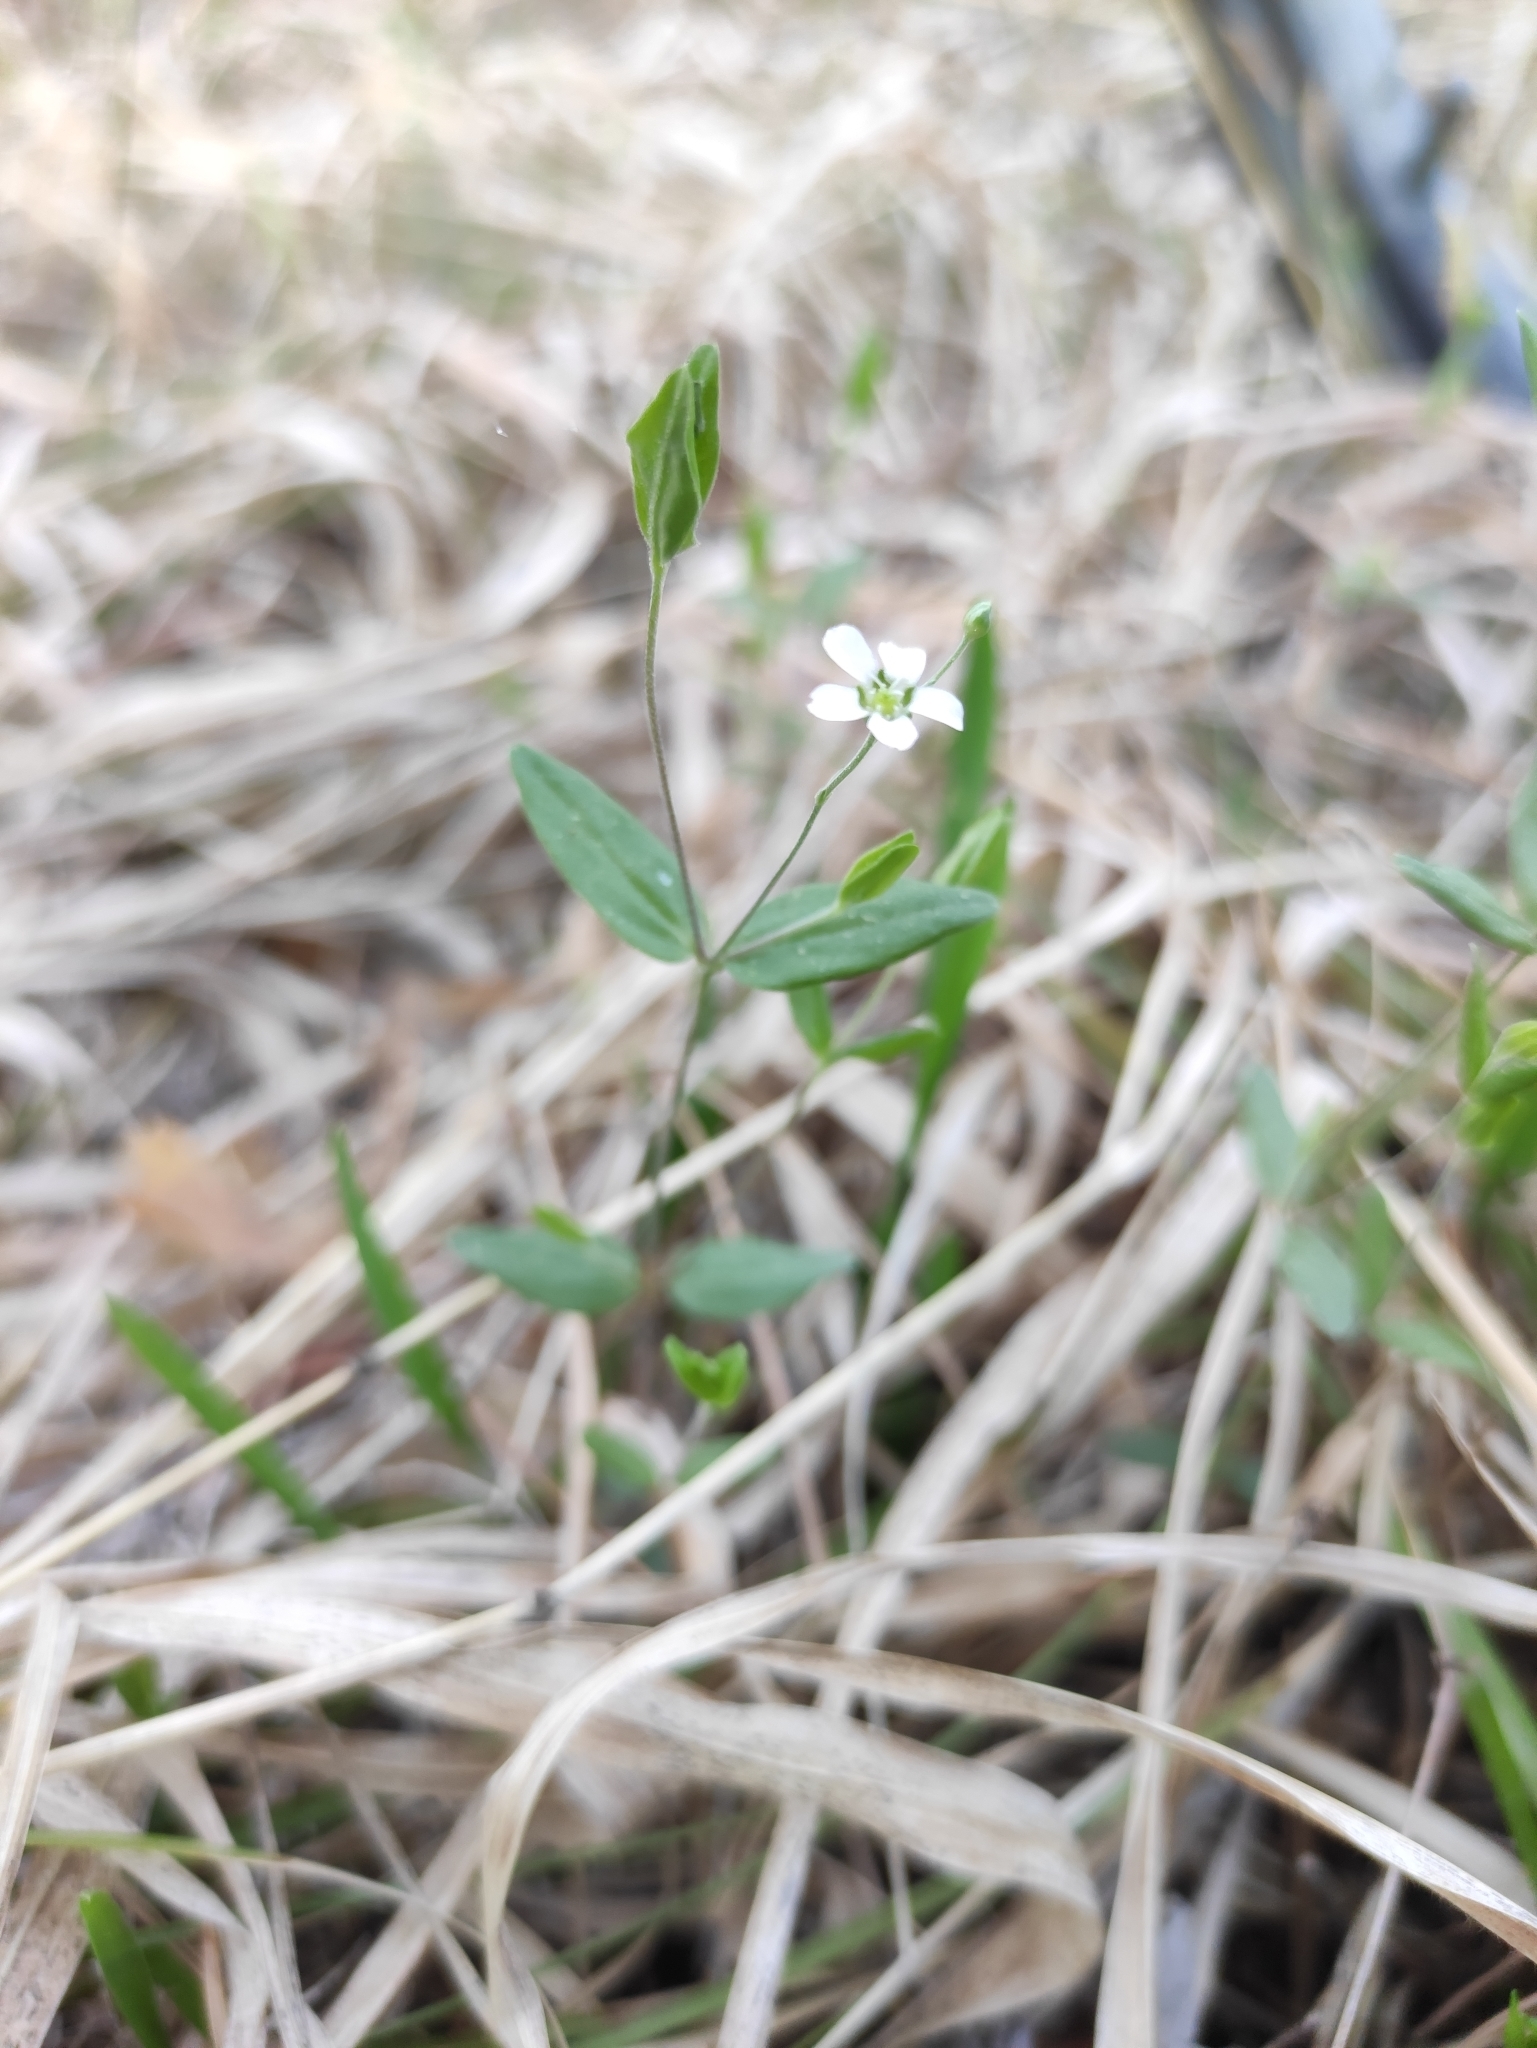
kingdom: Plantae
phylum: Tracheophyta
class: Magnoliopsida
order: Caryophyllales
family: Caryophyllaceae
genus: Moehringia
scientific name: Moehringia lateriflora
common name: Blunt-leaved sandwort
